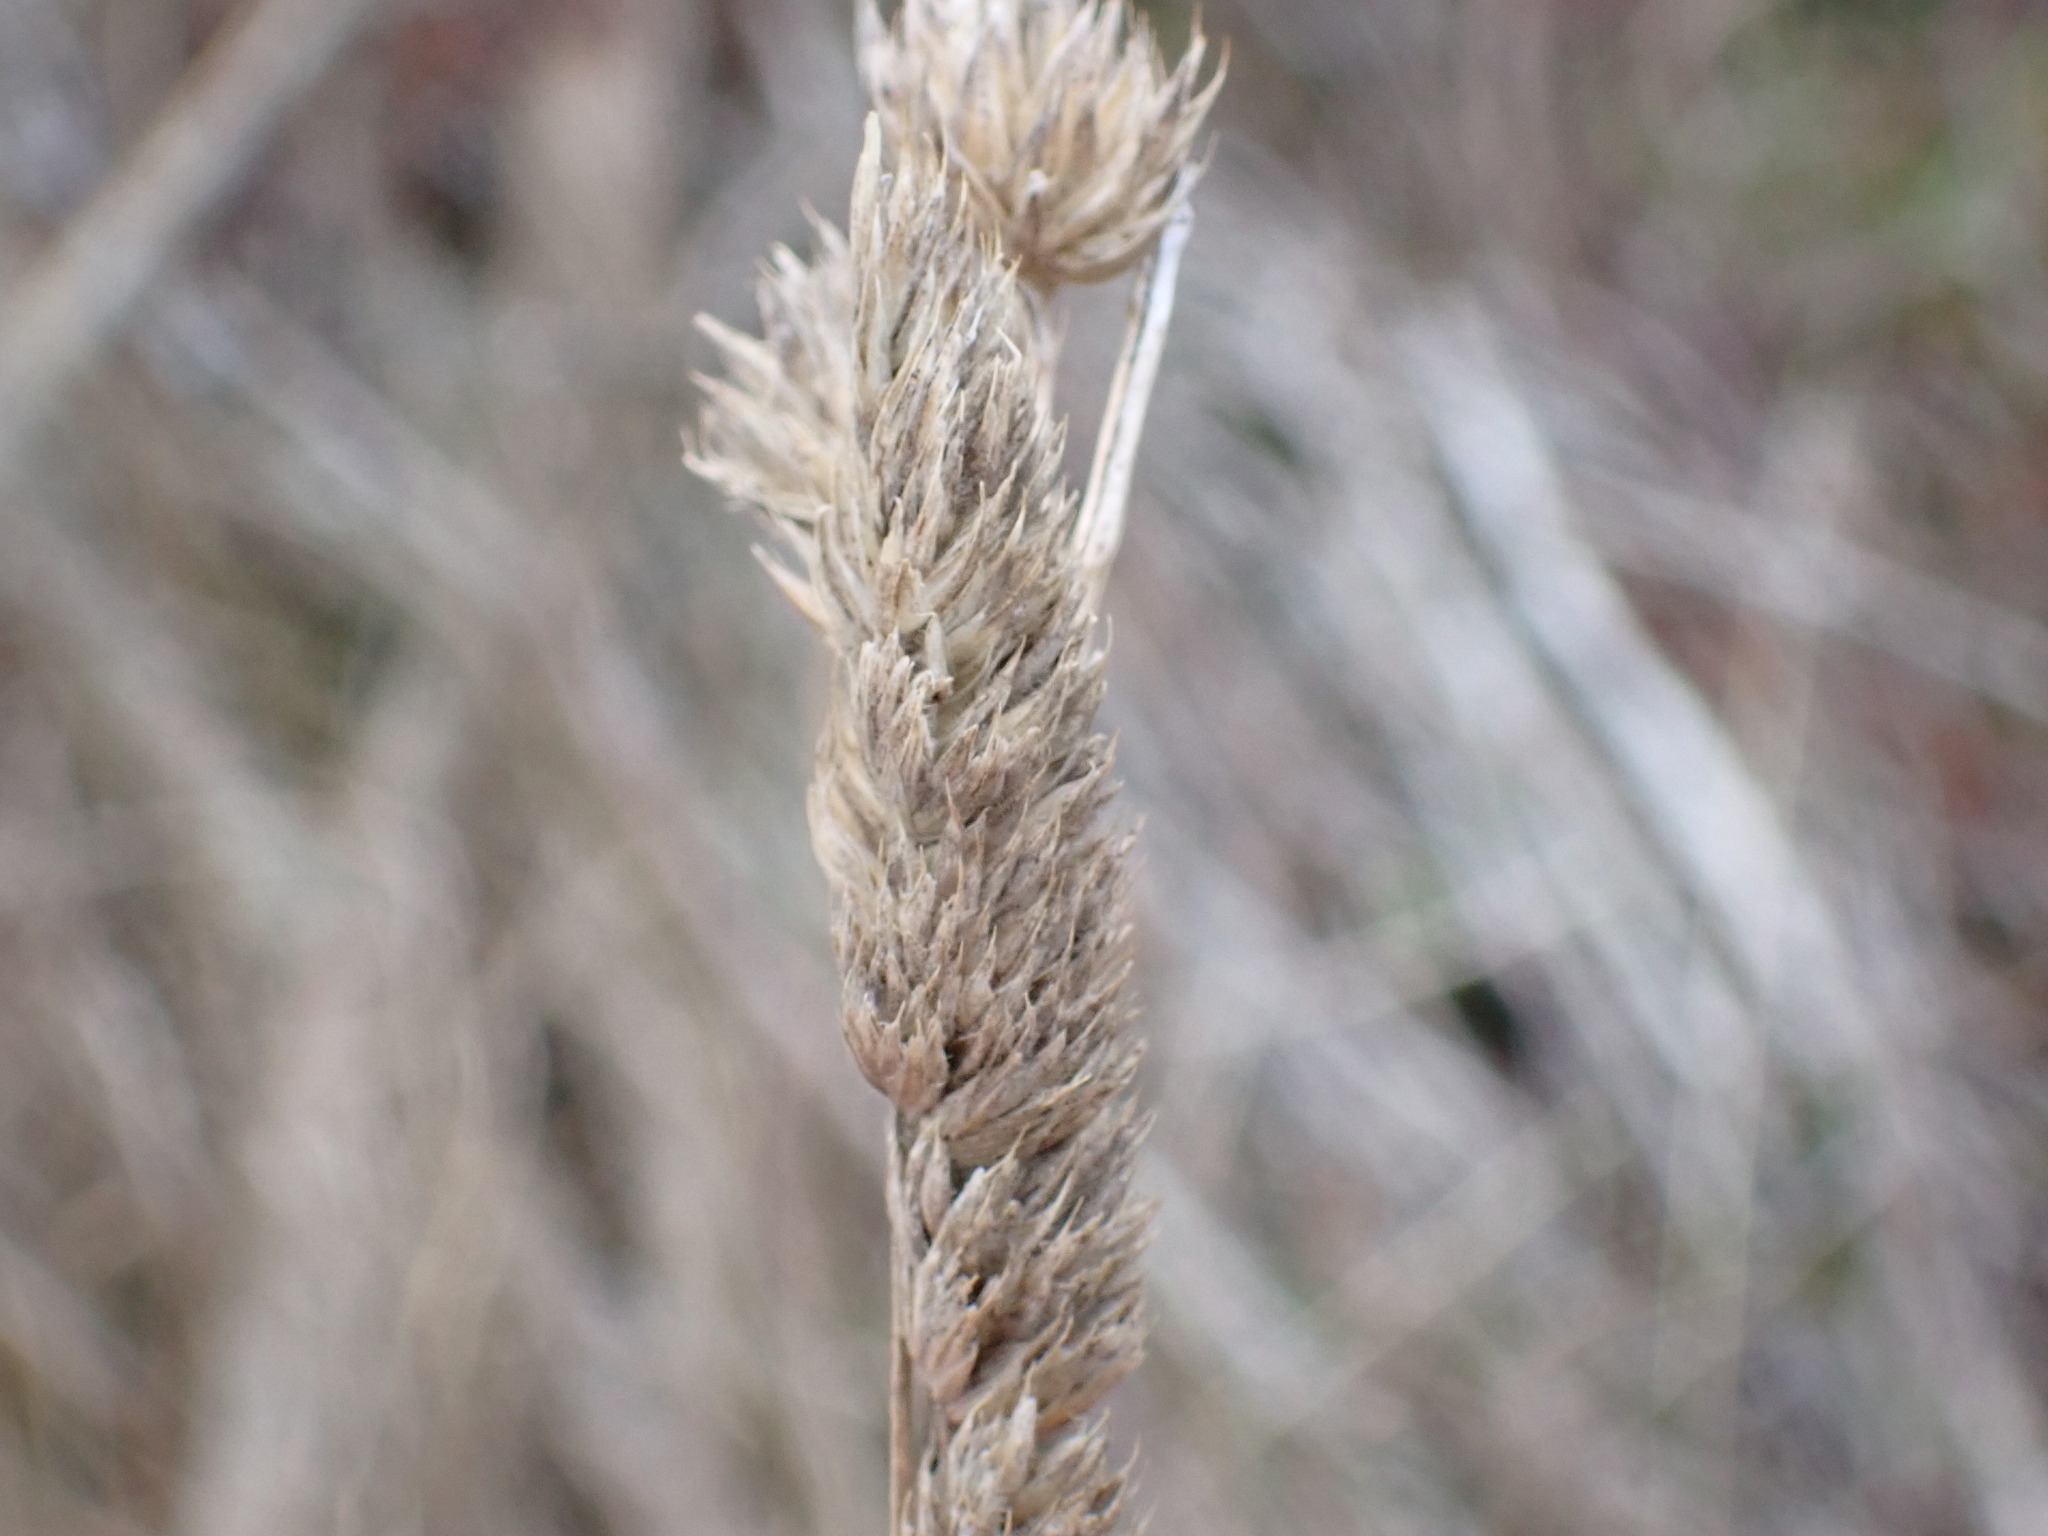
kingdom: Plantae
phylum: Tracheophyta
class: Liliopsida
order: Poales
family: Poaceae
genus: Dactylis
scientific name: Dactylis glomerata
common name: Orchardgrass
